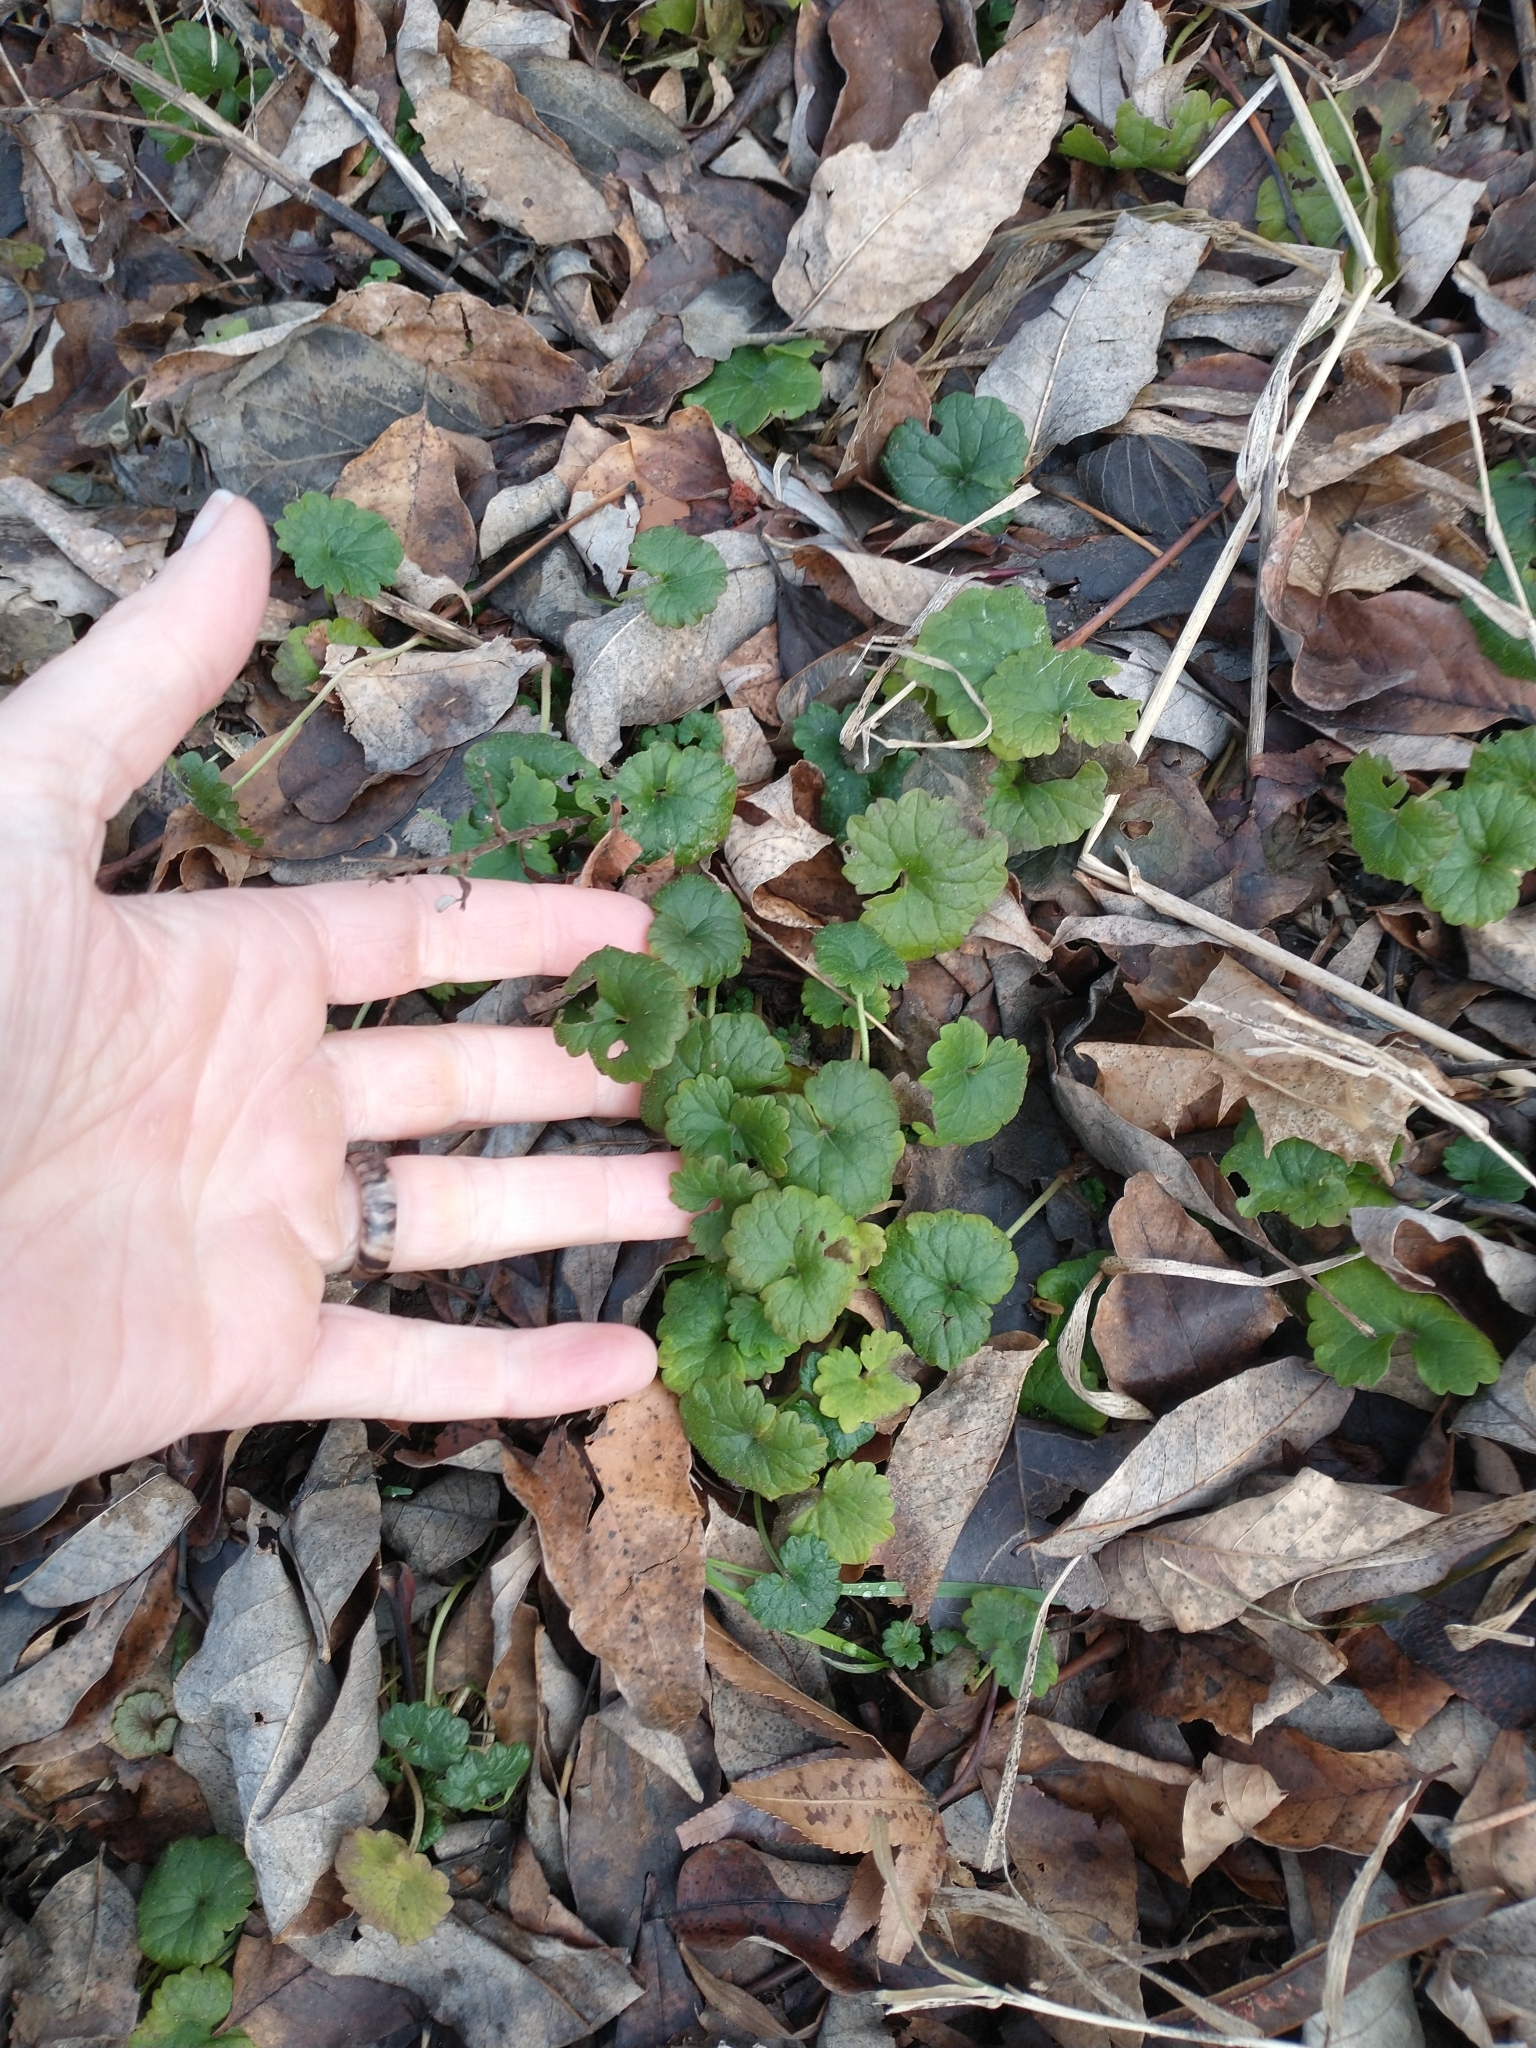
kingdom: Plantae
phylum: Tracheophyta
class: Magnoliopsida
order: Lamiales
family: Lamiaceae
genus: Glechoma
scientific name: Glechoma hederacea
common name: Ground ivy
